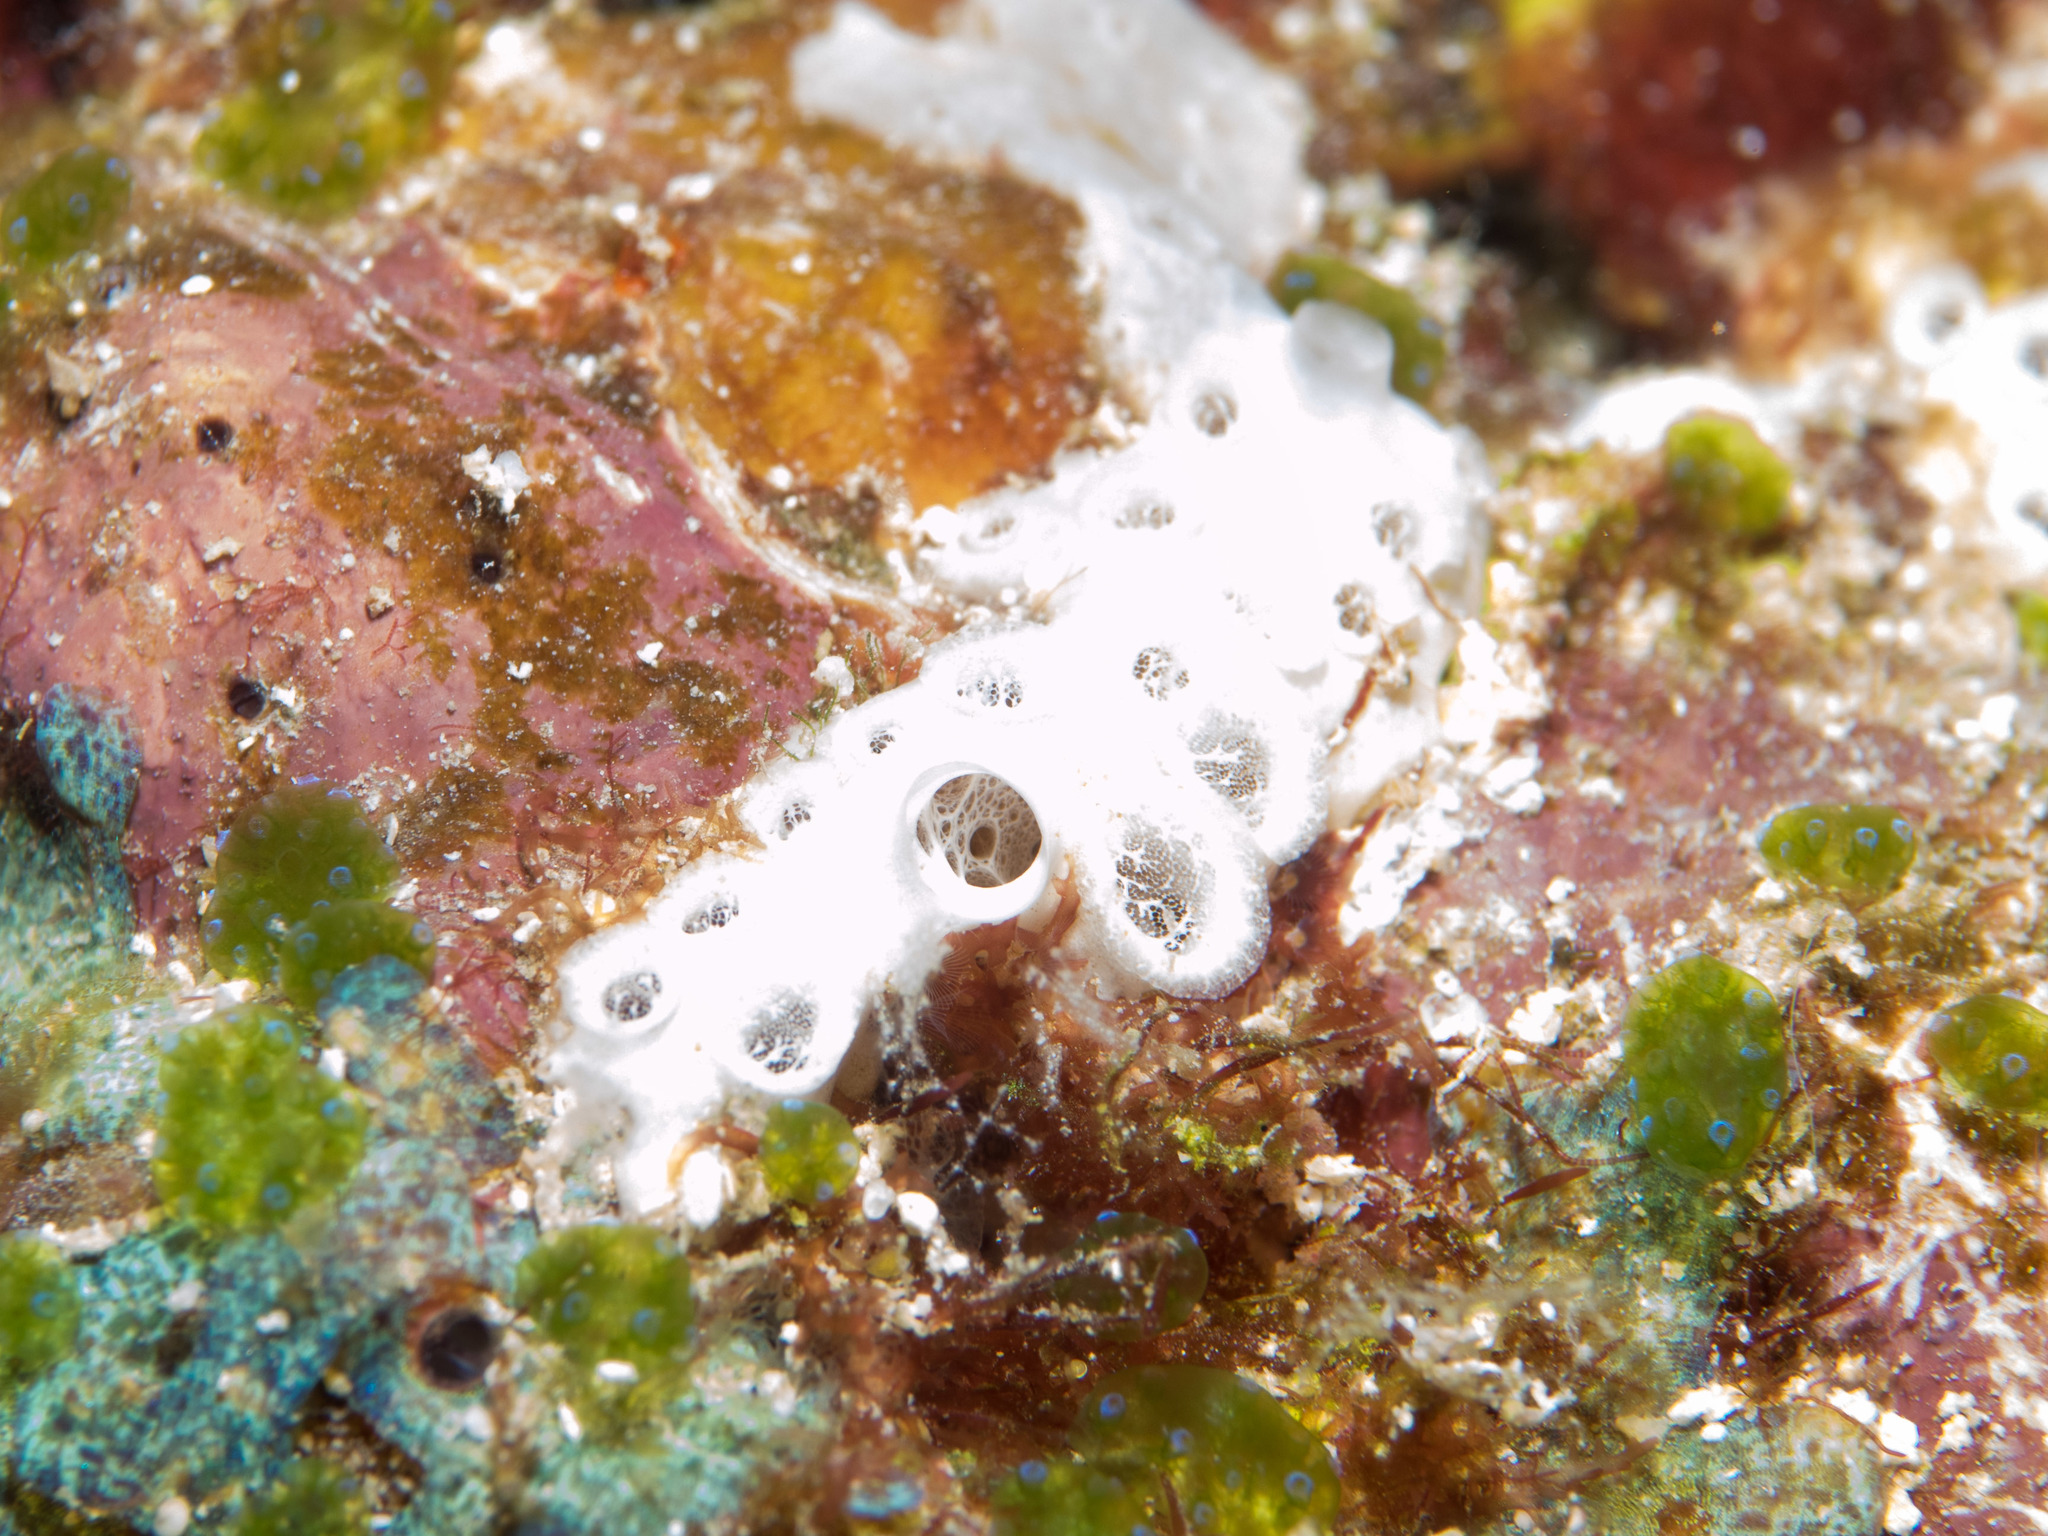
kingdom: Animalia
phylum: Porifera
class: Demospongiae
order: Poecilosclerida
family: Crellidae
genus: Crella
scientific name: Crella cyathophora
